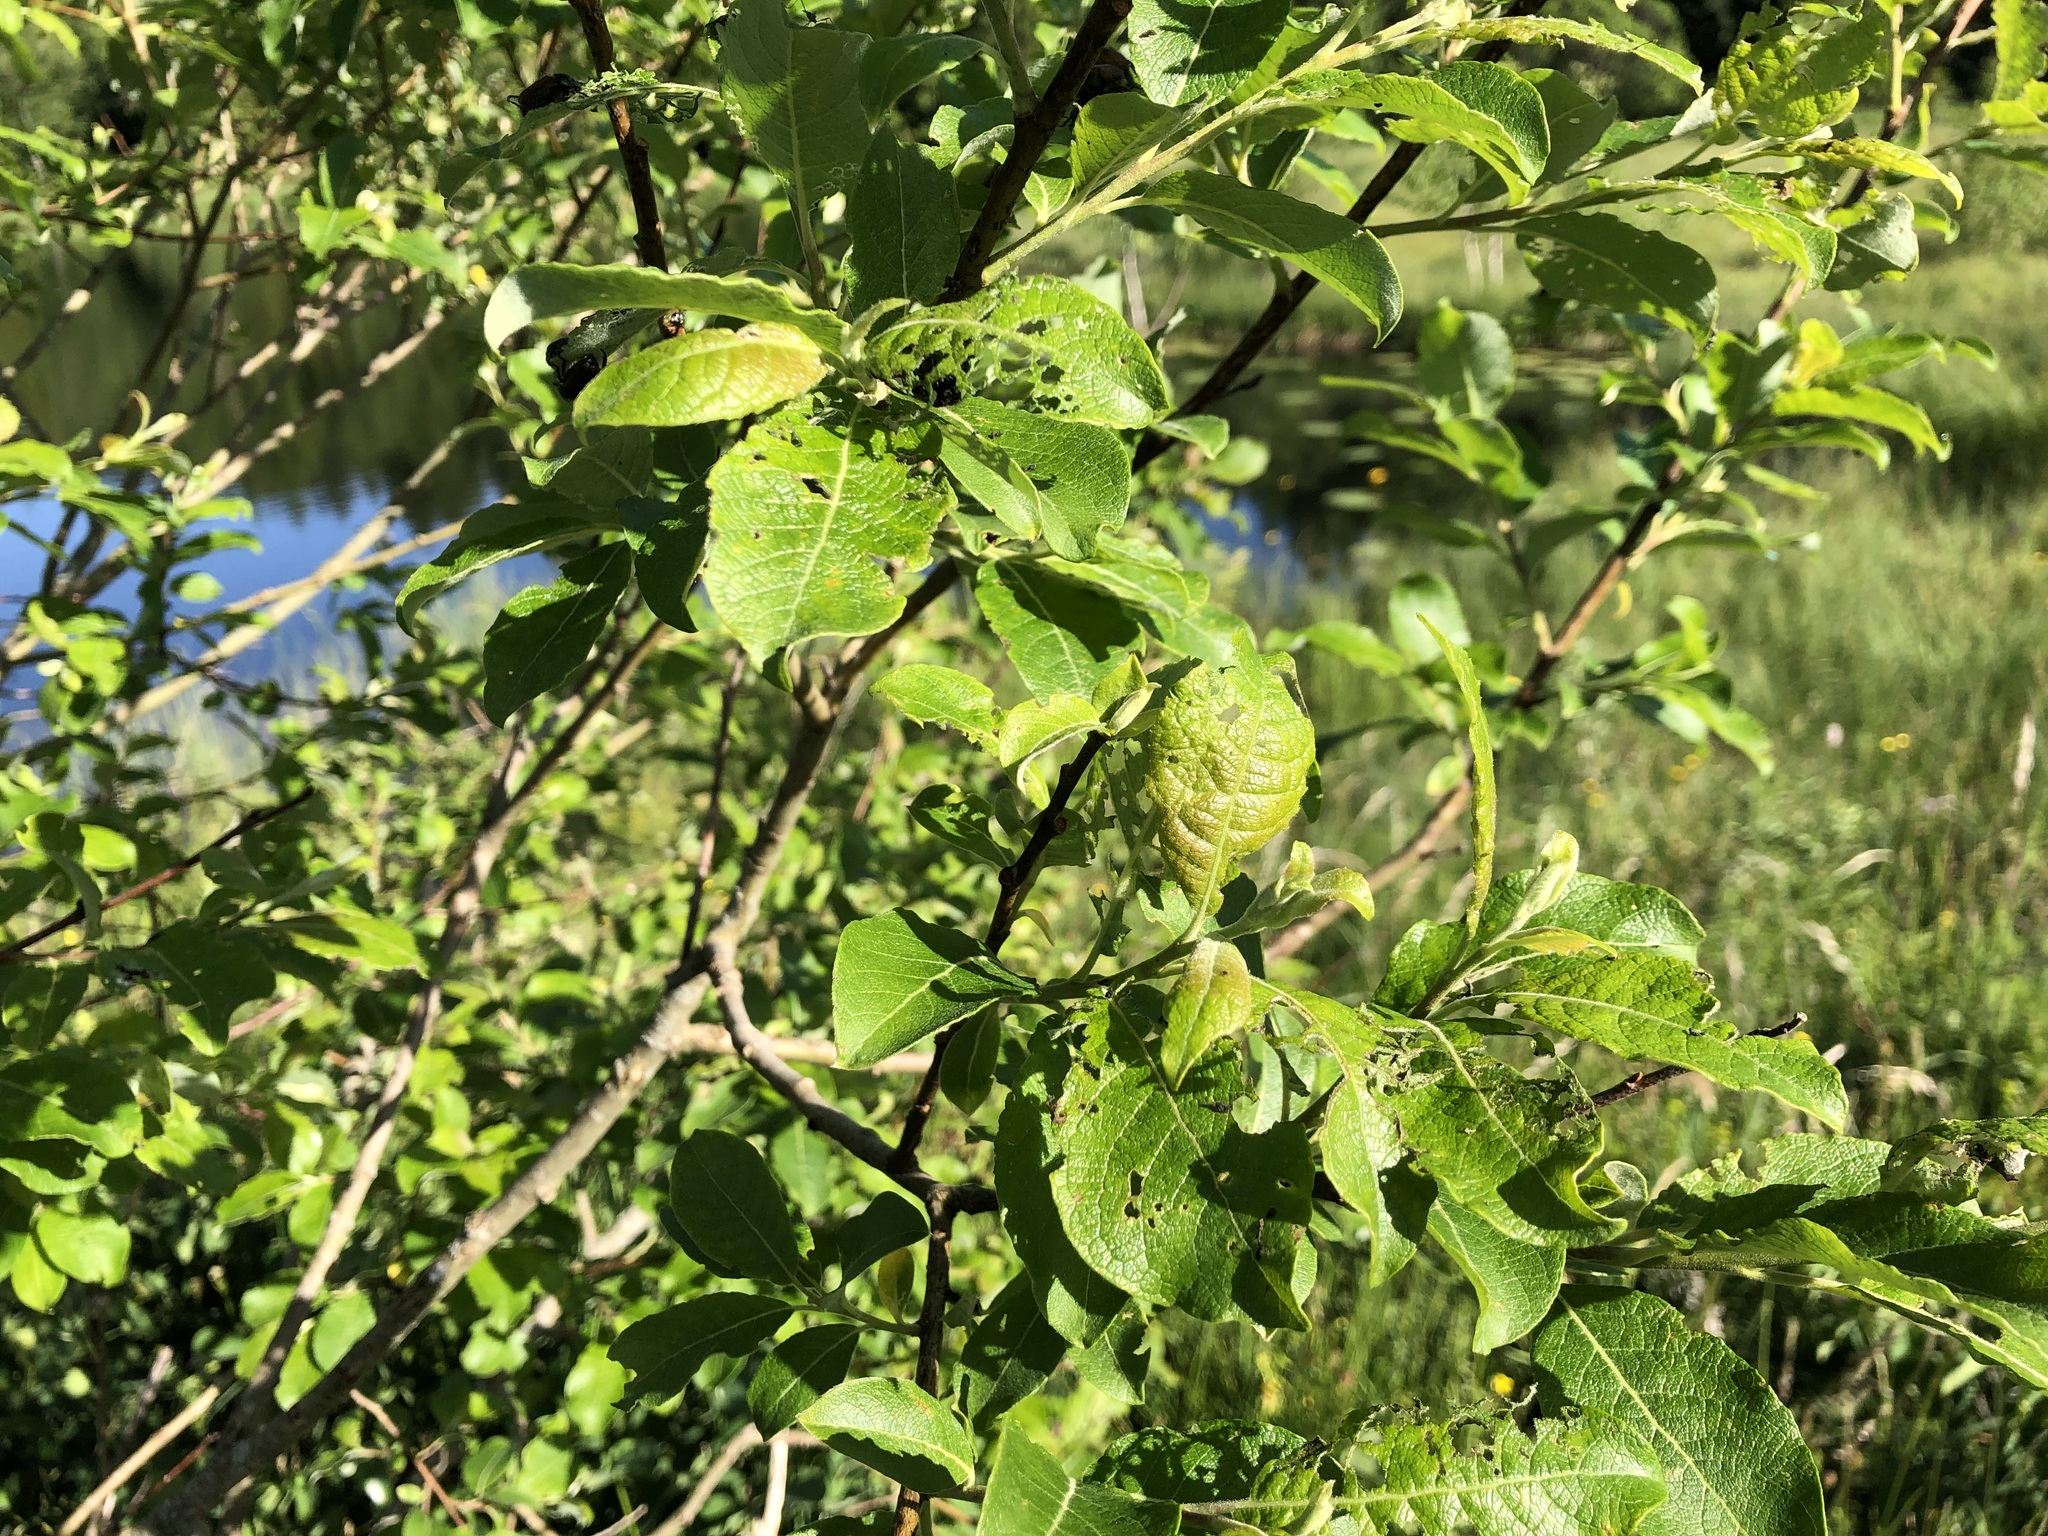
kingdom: Plantae
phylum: Tracheophyta
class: Magnoliopsida
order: Malpighiales
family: Salicaceae
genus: Salix
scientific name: Salix caprea
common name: Goat willow
